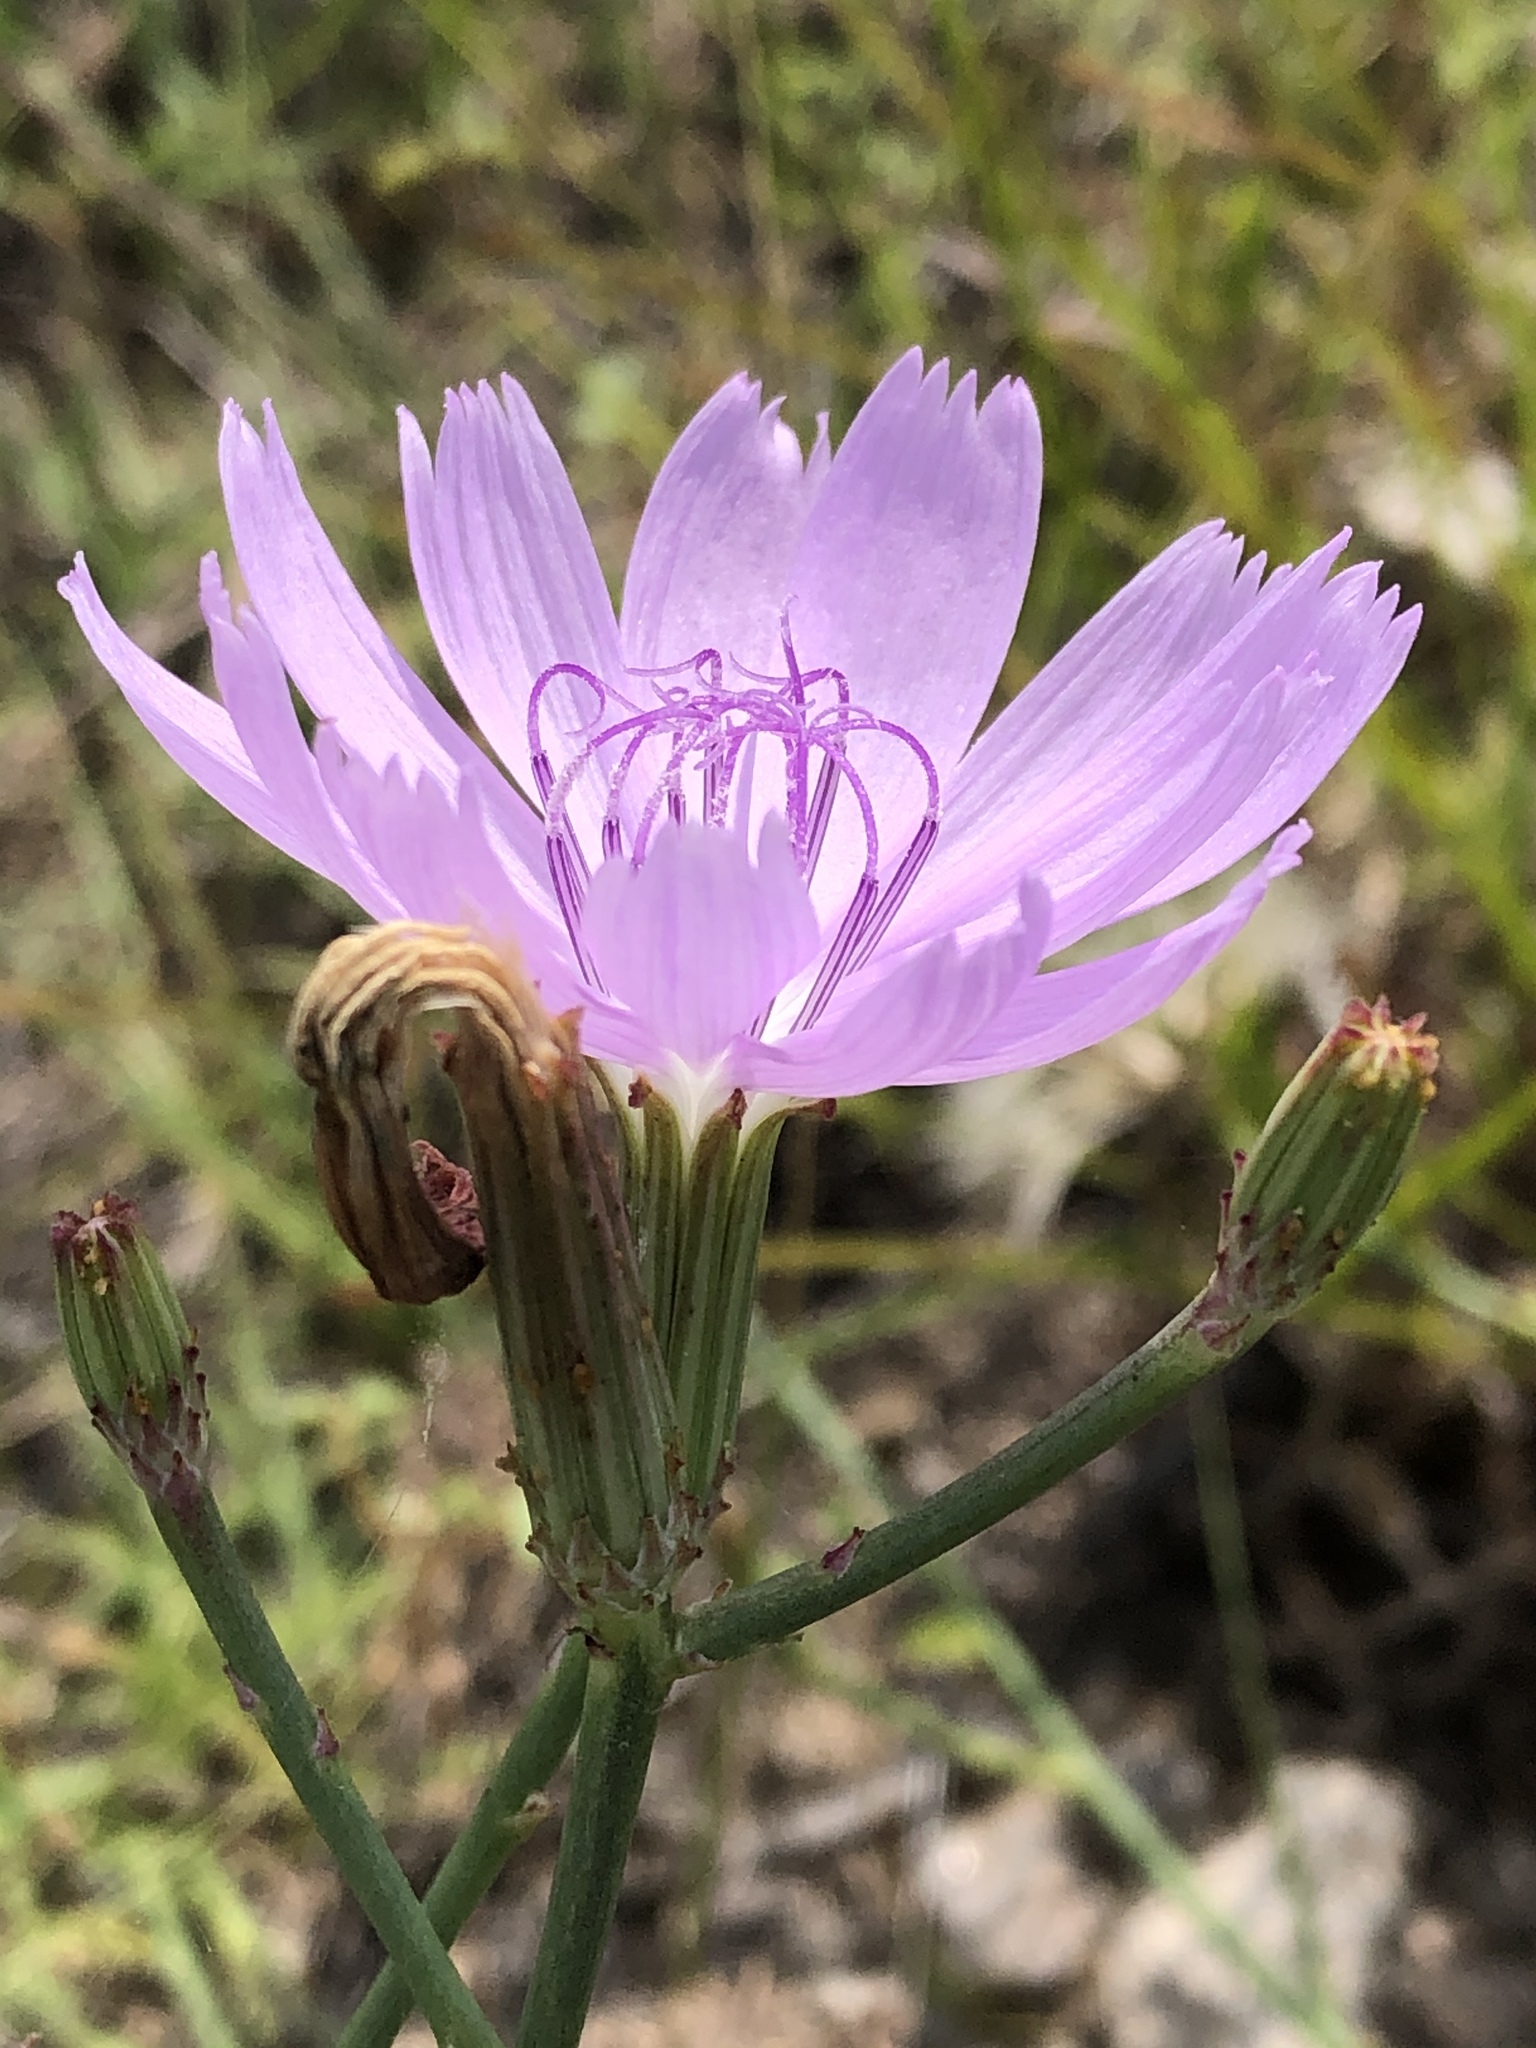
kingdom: Plantae
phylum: Tracheophyta
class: Magnoliopsida
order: Asterales
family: Asteraceae
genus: Lygodesmia
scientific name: Lygodesmia texana
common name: Texas skeleton-plant
